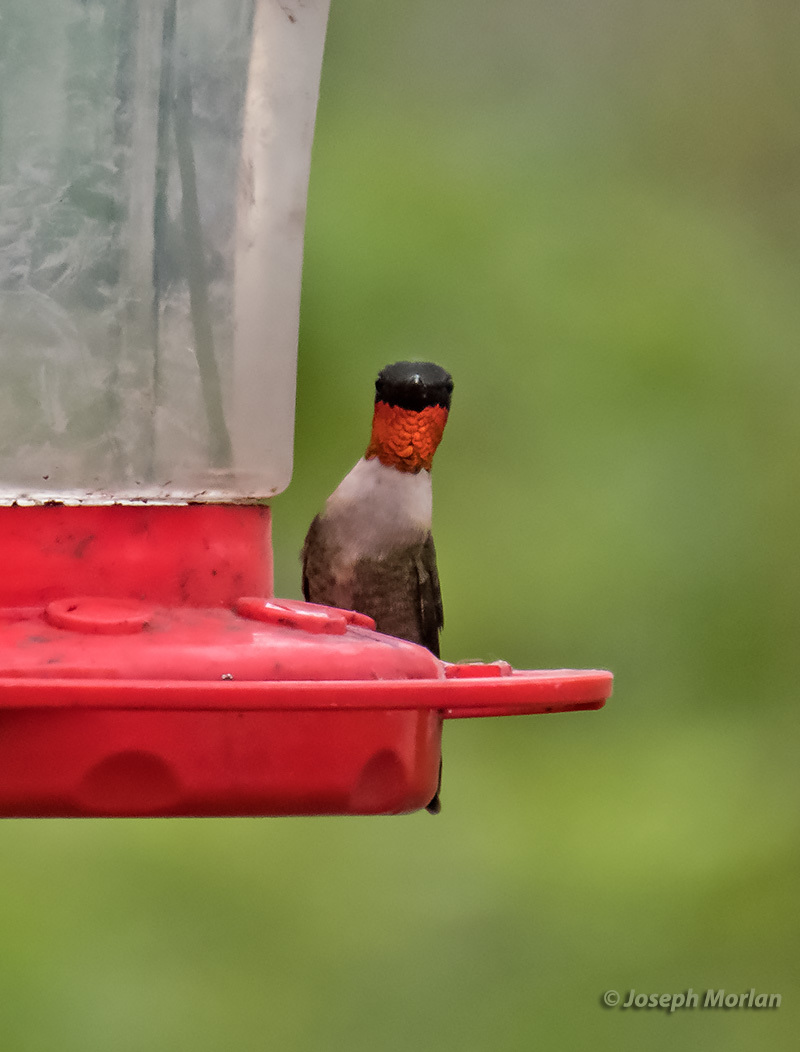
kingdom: Animalia
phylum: Chordata
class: Aves
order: Apodiformes
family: Trochilidae
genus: Archilochus
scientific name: Archilochus colubris
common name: Ruby-throated hummingbird
